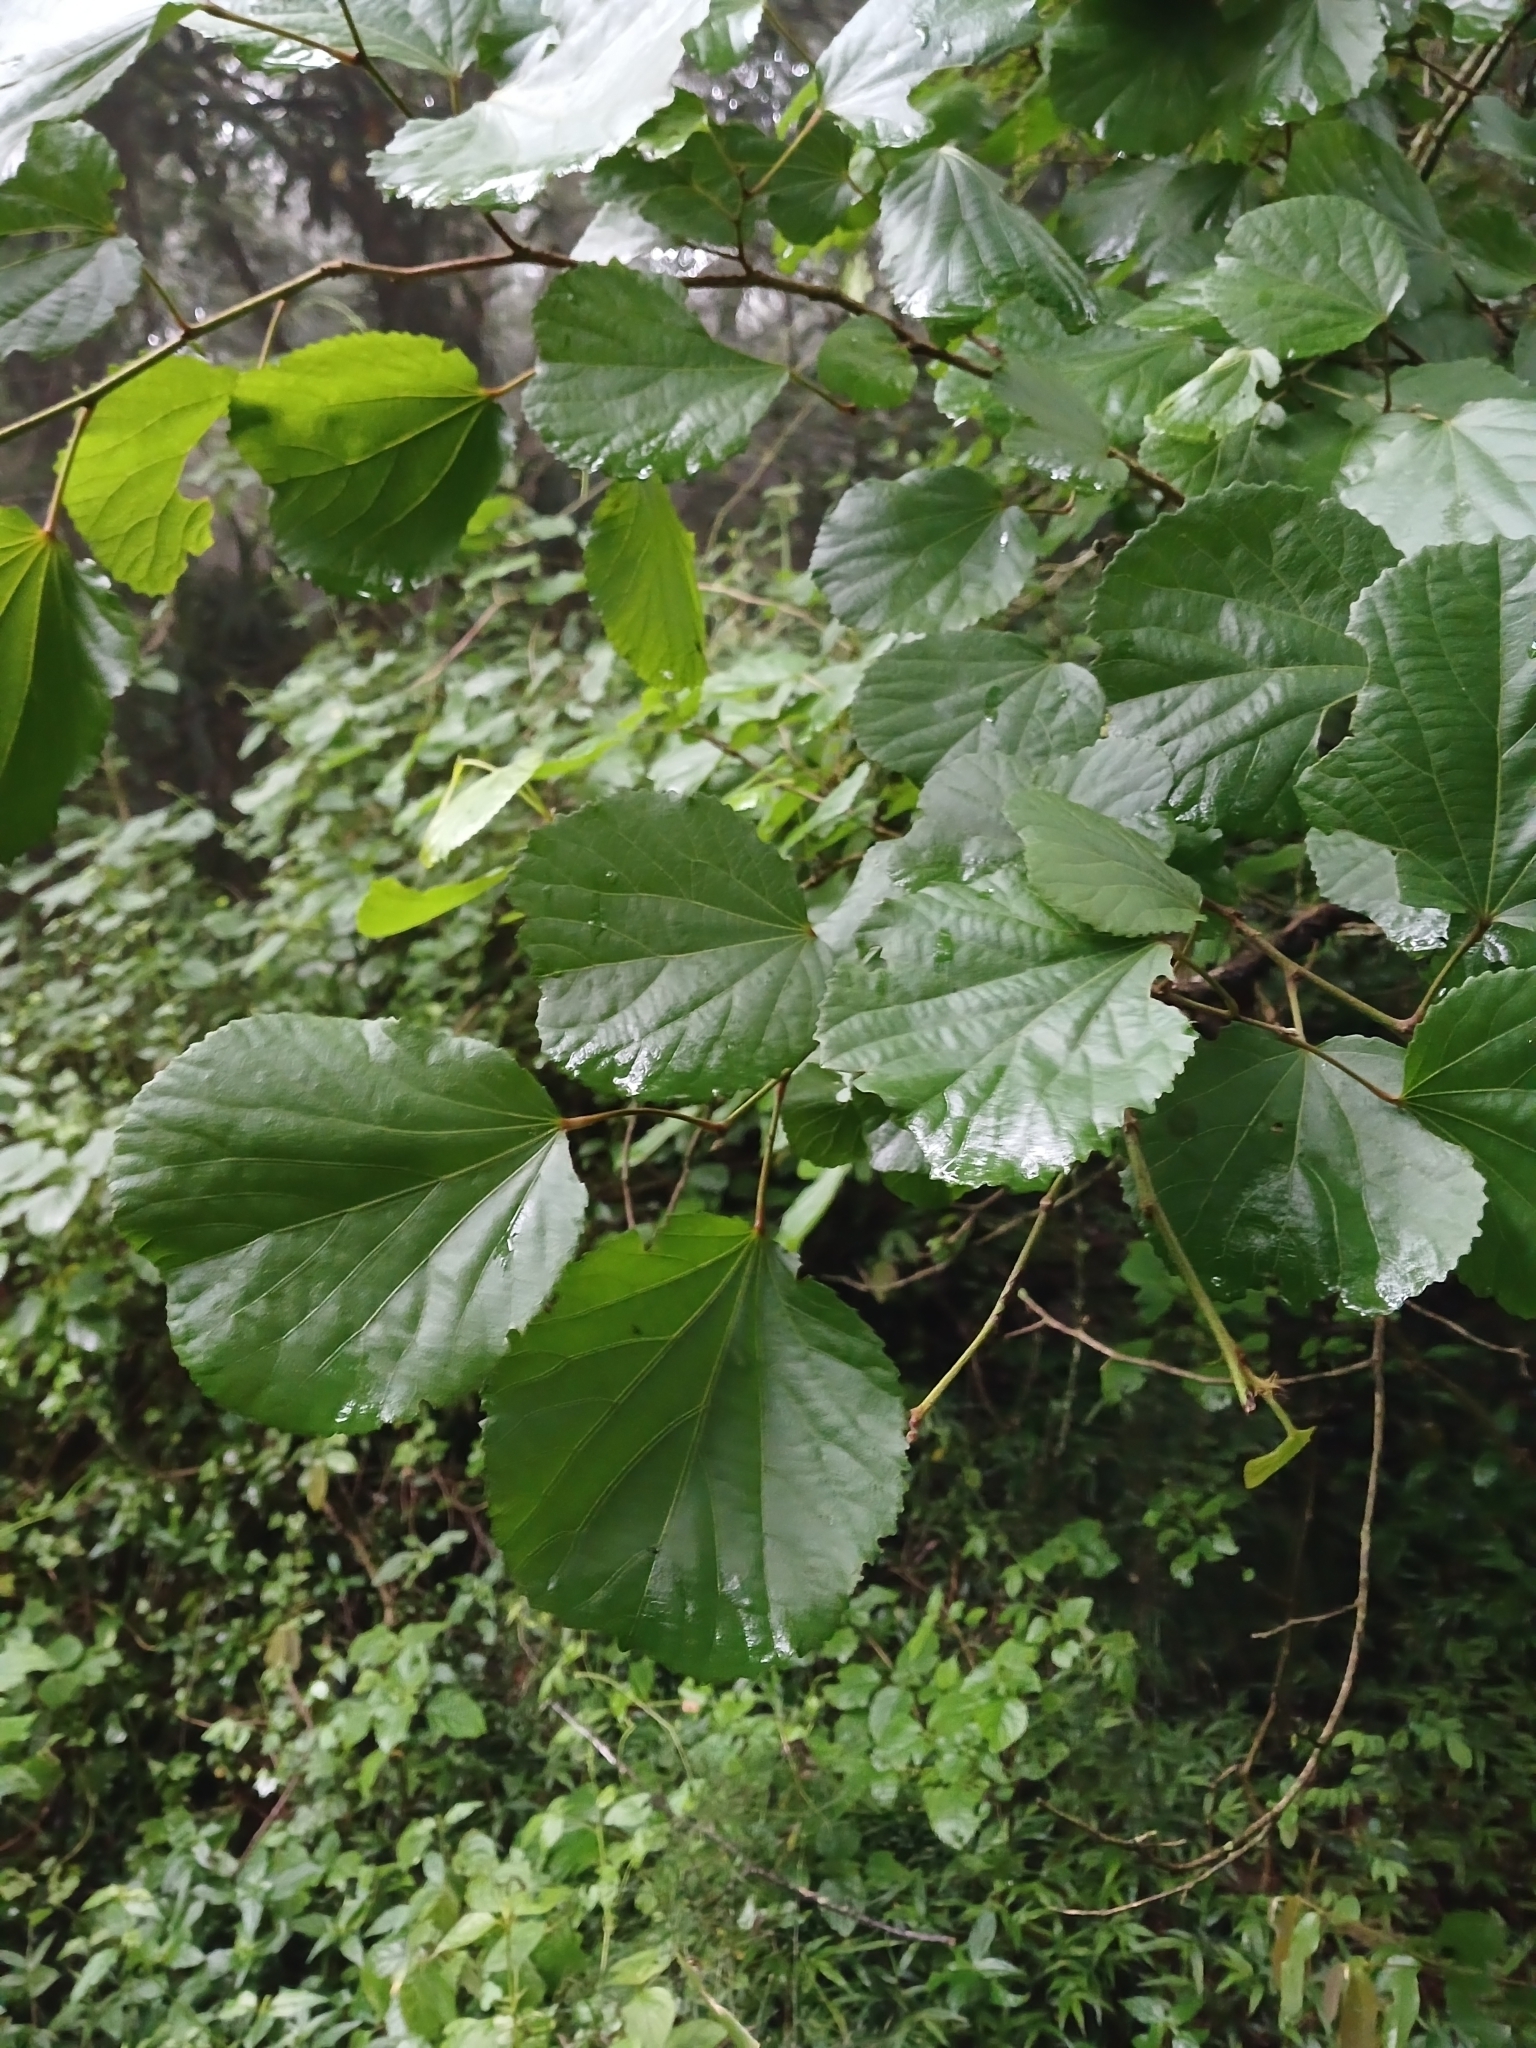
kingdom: Plantae
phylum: Tracheophyta
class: Magnoliopsida
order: Malpighiales
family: Salicaceae
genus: Trimeria
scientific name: Trimeria grandifolia
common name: Wild mulberry
